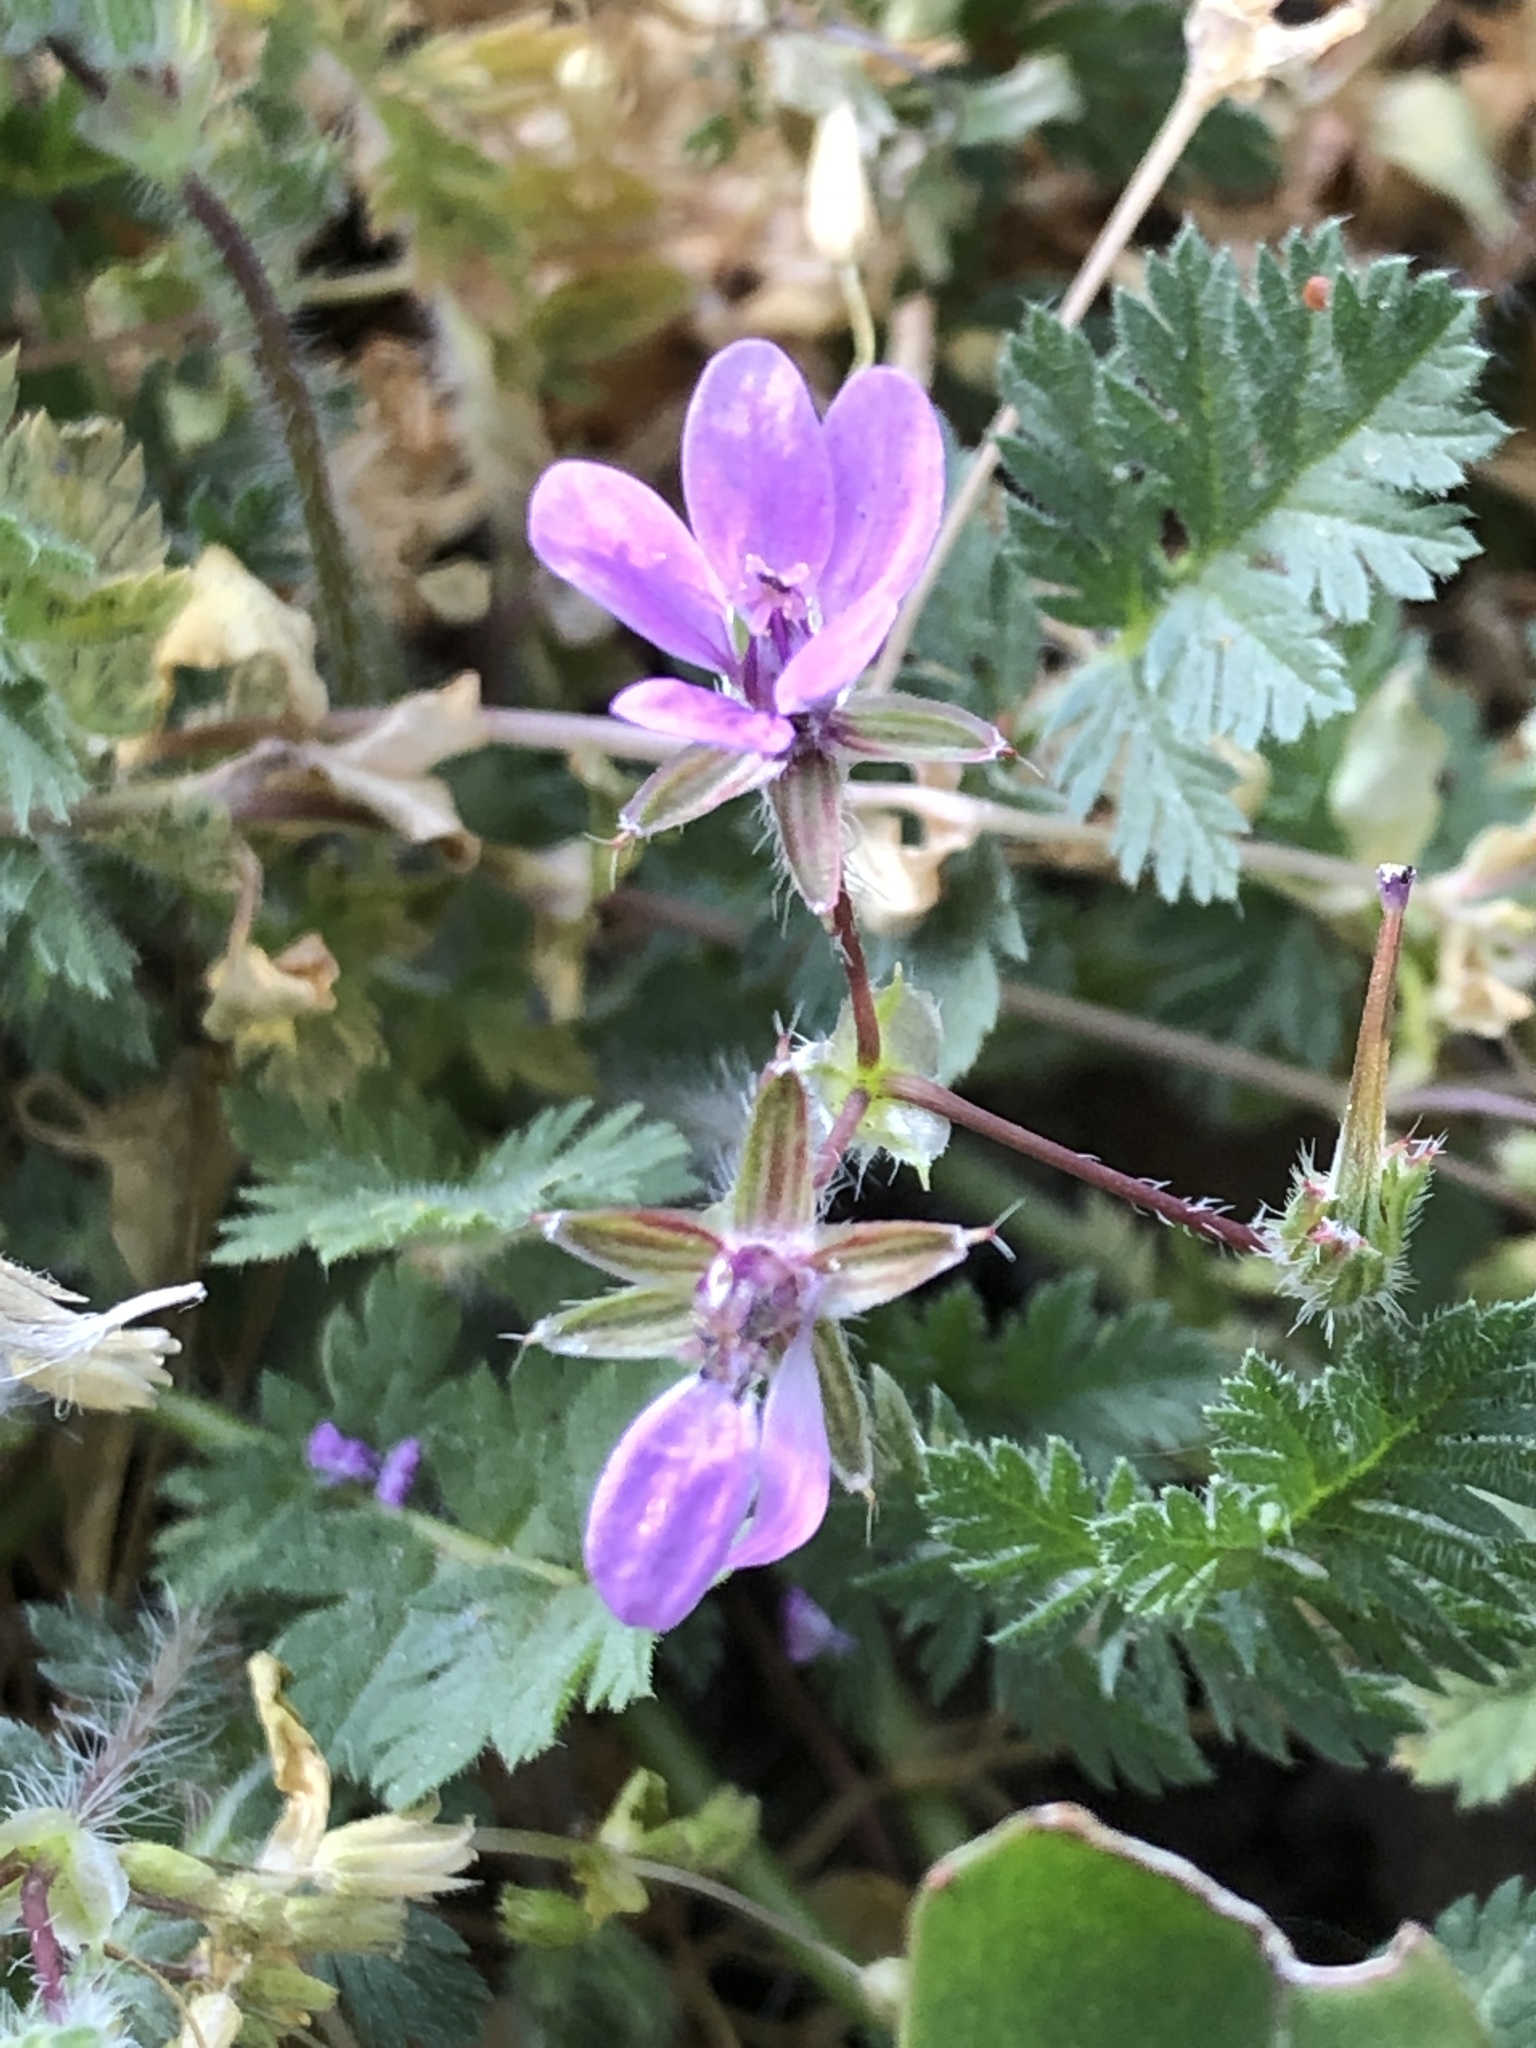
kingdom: Plantae
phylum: Tracheophyta
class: Magnoliopsida
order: Geraniales
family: Geraniaceae
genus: Erodium
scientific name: Erodium cicutarium
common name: Common stork's-bill
